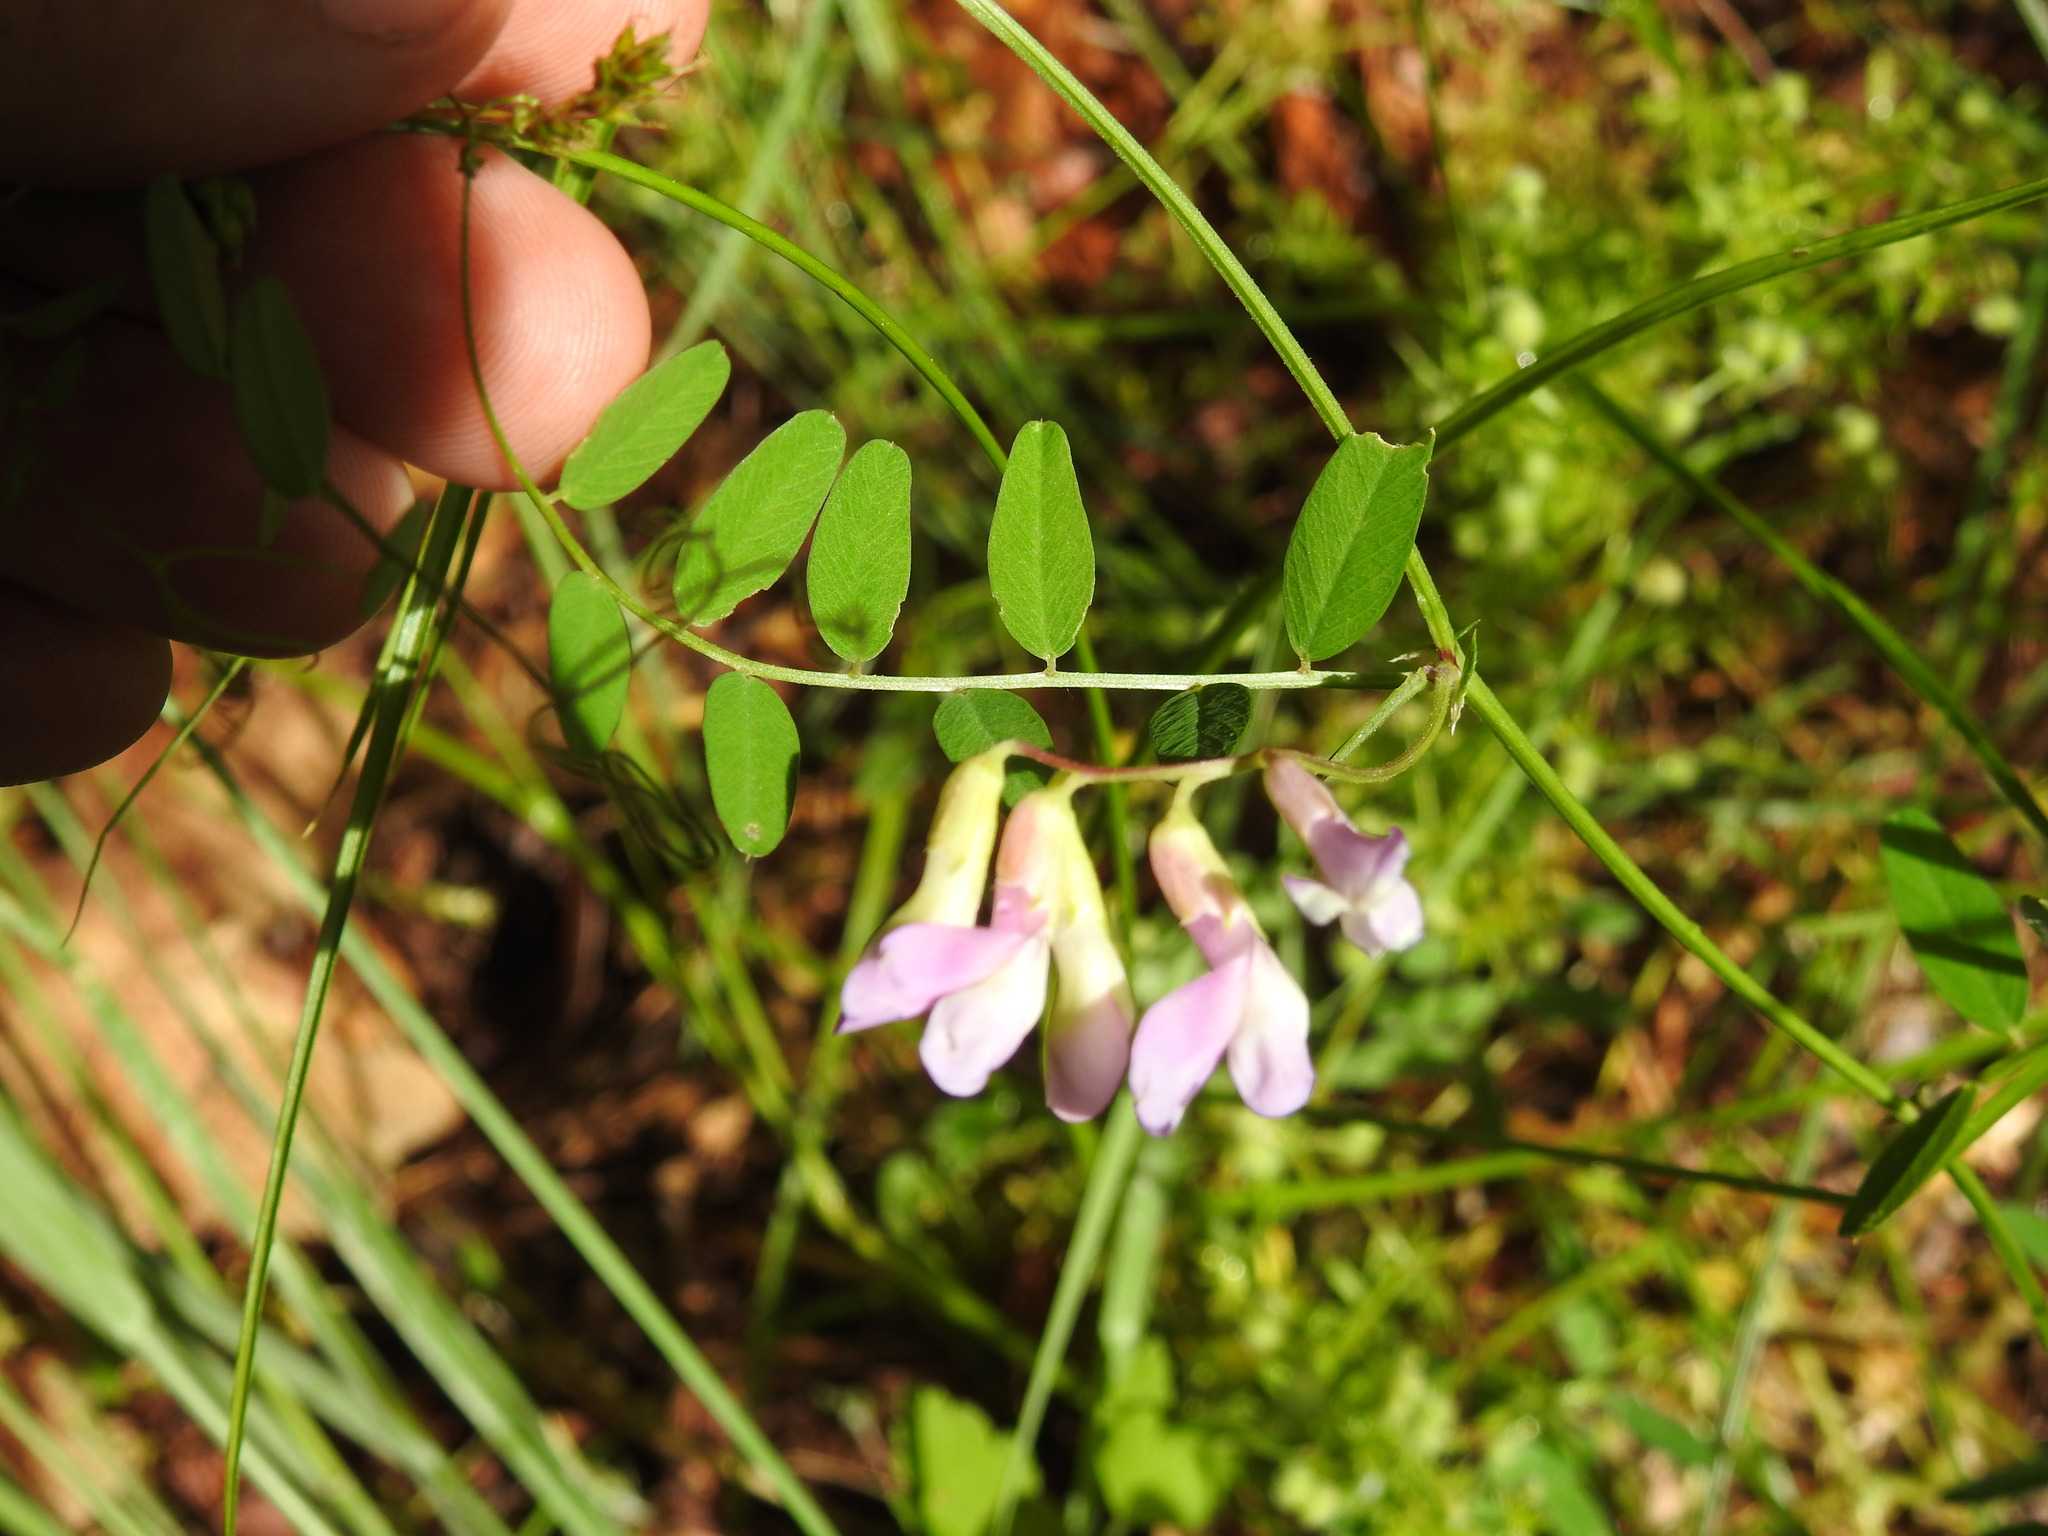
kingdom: Plantae
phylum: Tracheophyta
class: Magnoliopsida
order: Fabales
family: Fabaceae
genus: Vicia
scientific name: Vicia americana
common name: American vetch
